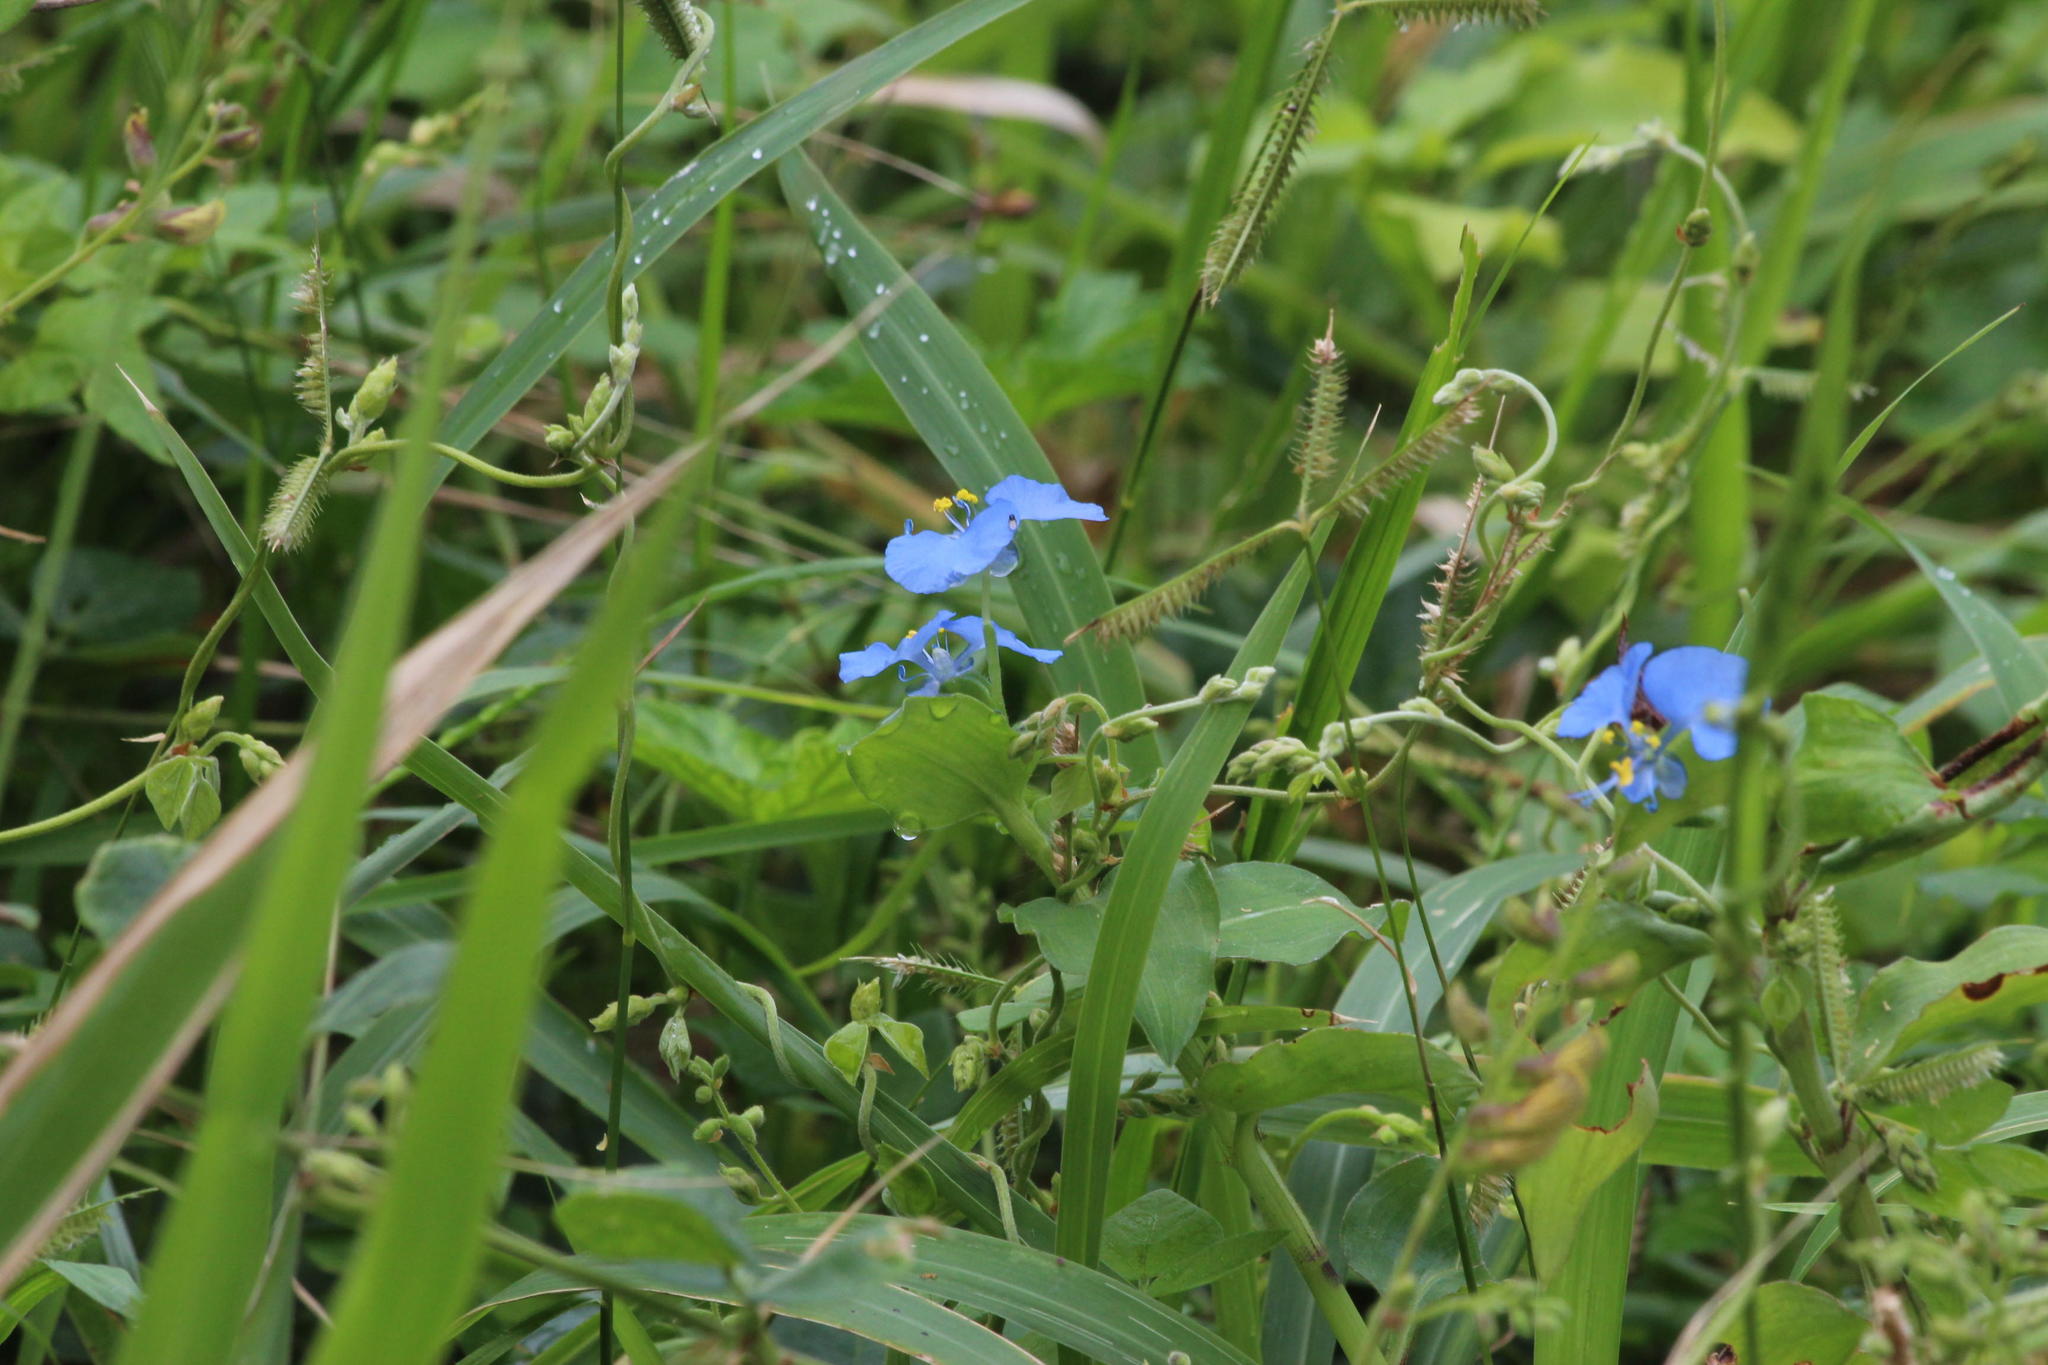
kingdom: Plantae
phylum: Tracheophyta
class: Liliopsida
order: Commelinales
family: Commelinaceae
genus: Commelina
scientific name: Commelina benghalensis
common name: Jio
